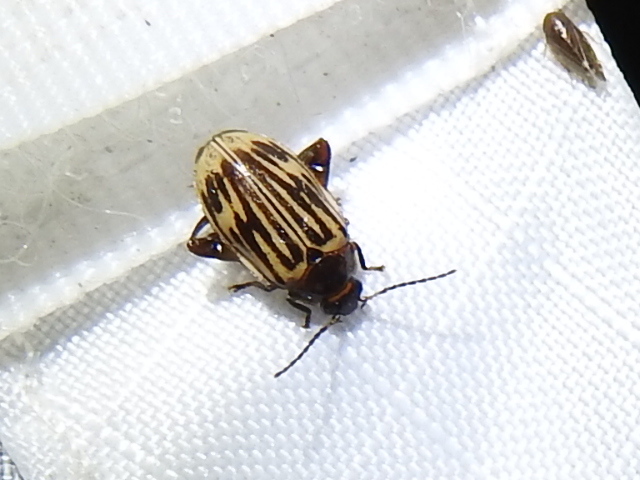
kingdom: Animalia
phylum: Arthropoda
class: Insecta
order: Coleoptera
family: Scirtidae
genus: Ora
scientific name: Ora troberti
